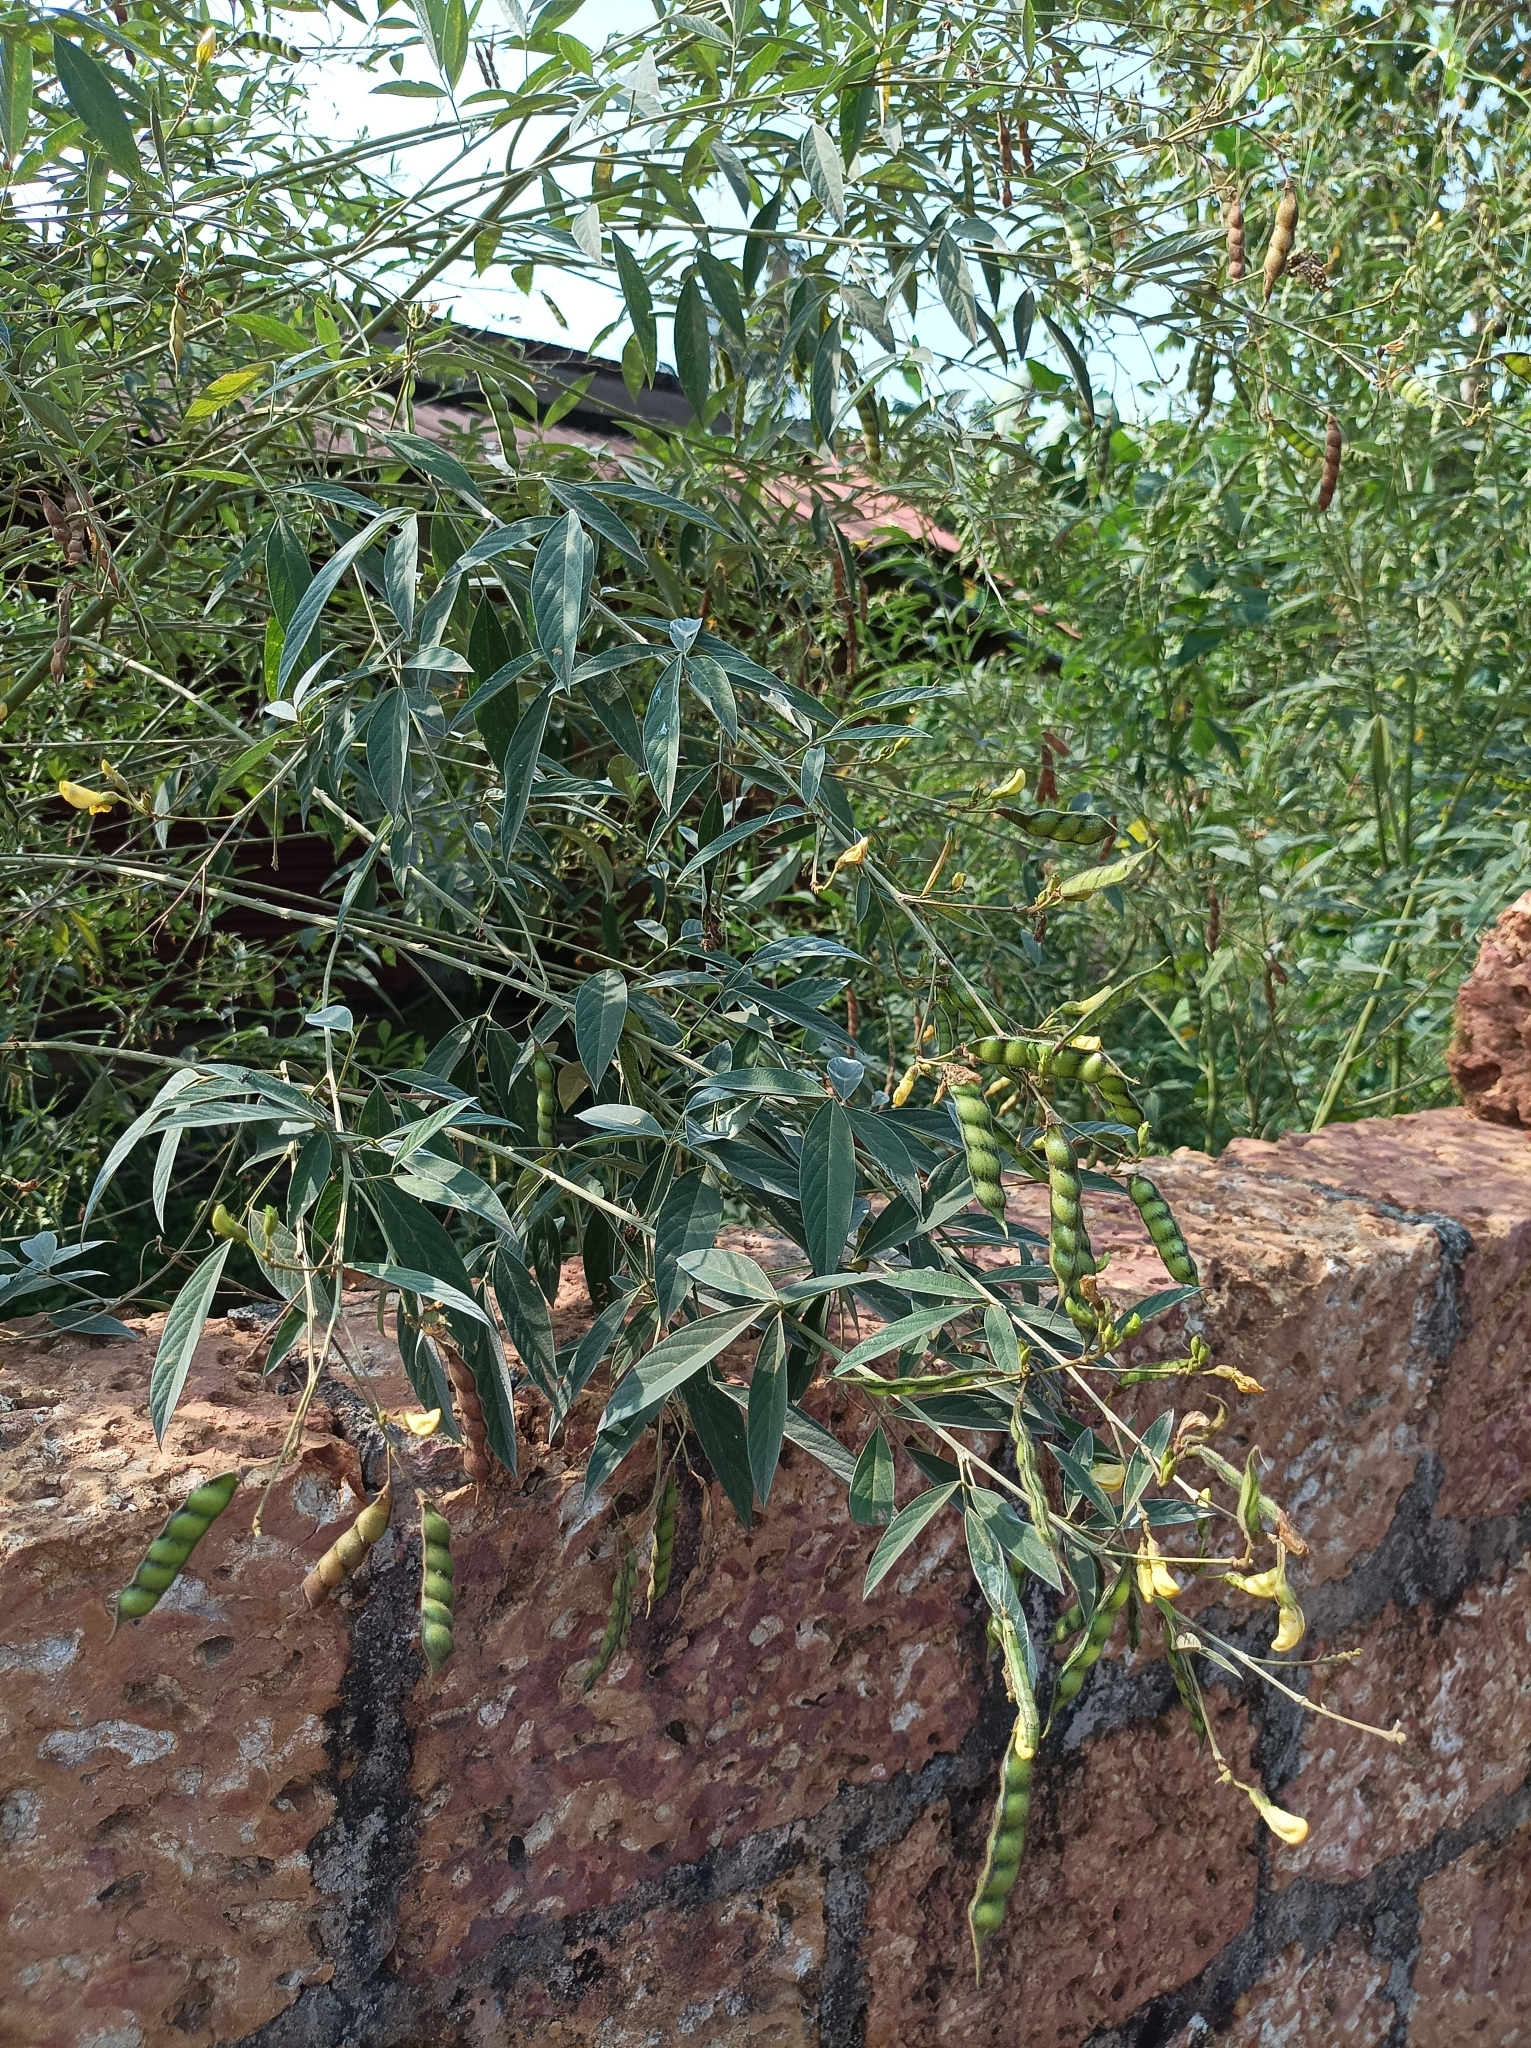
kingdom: Plantae
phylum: Tracheophyta
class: Magnoliopsida
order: Fabales
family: Fabaceae
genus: Cajanus
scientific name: Cajanus cajan
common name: Pigeonpea
